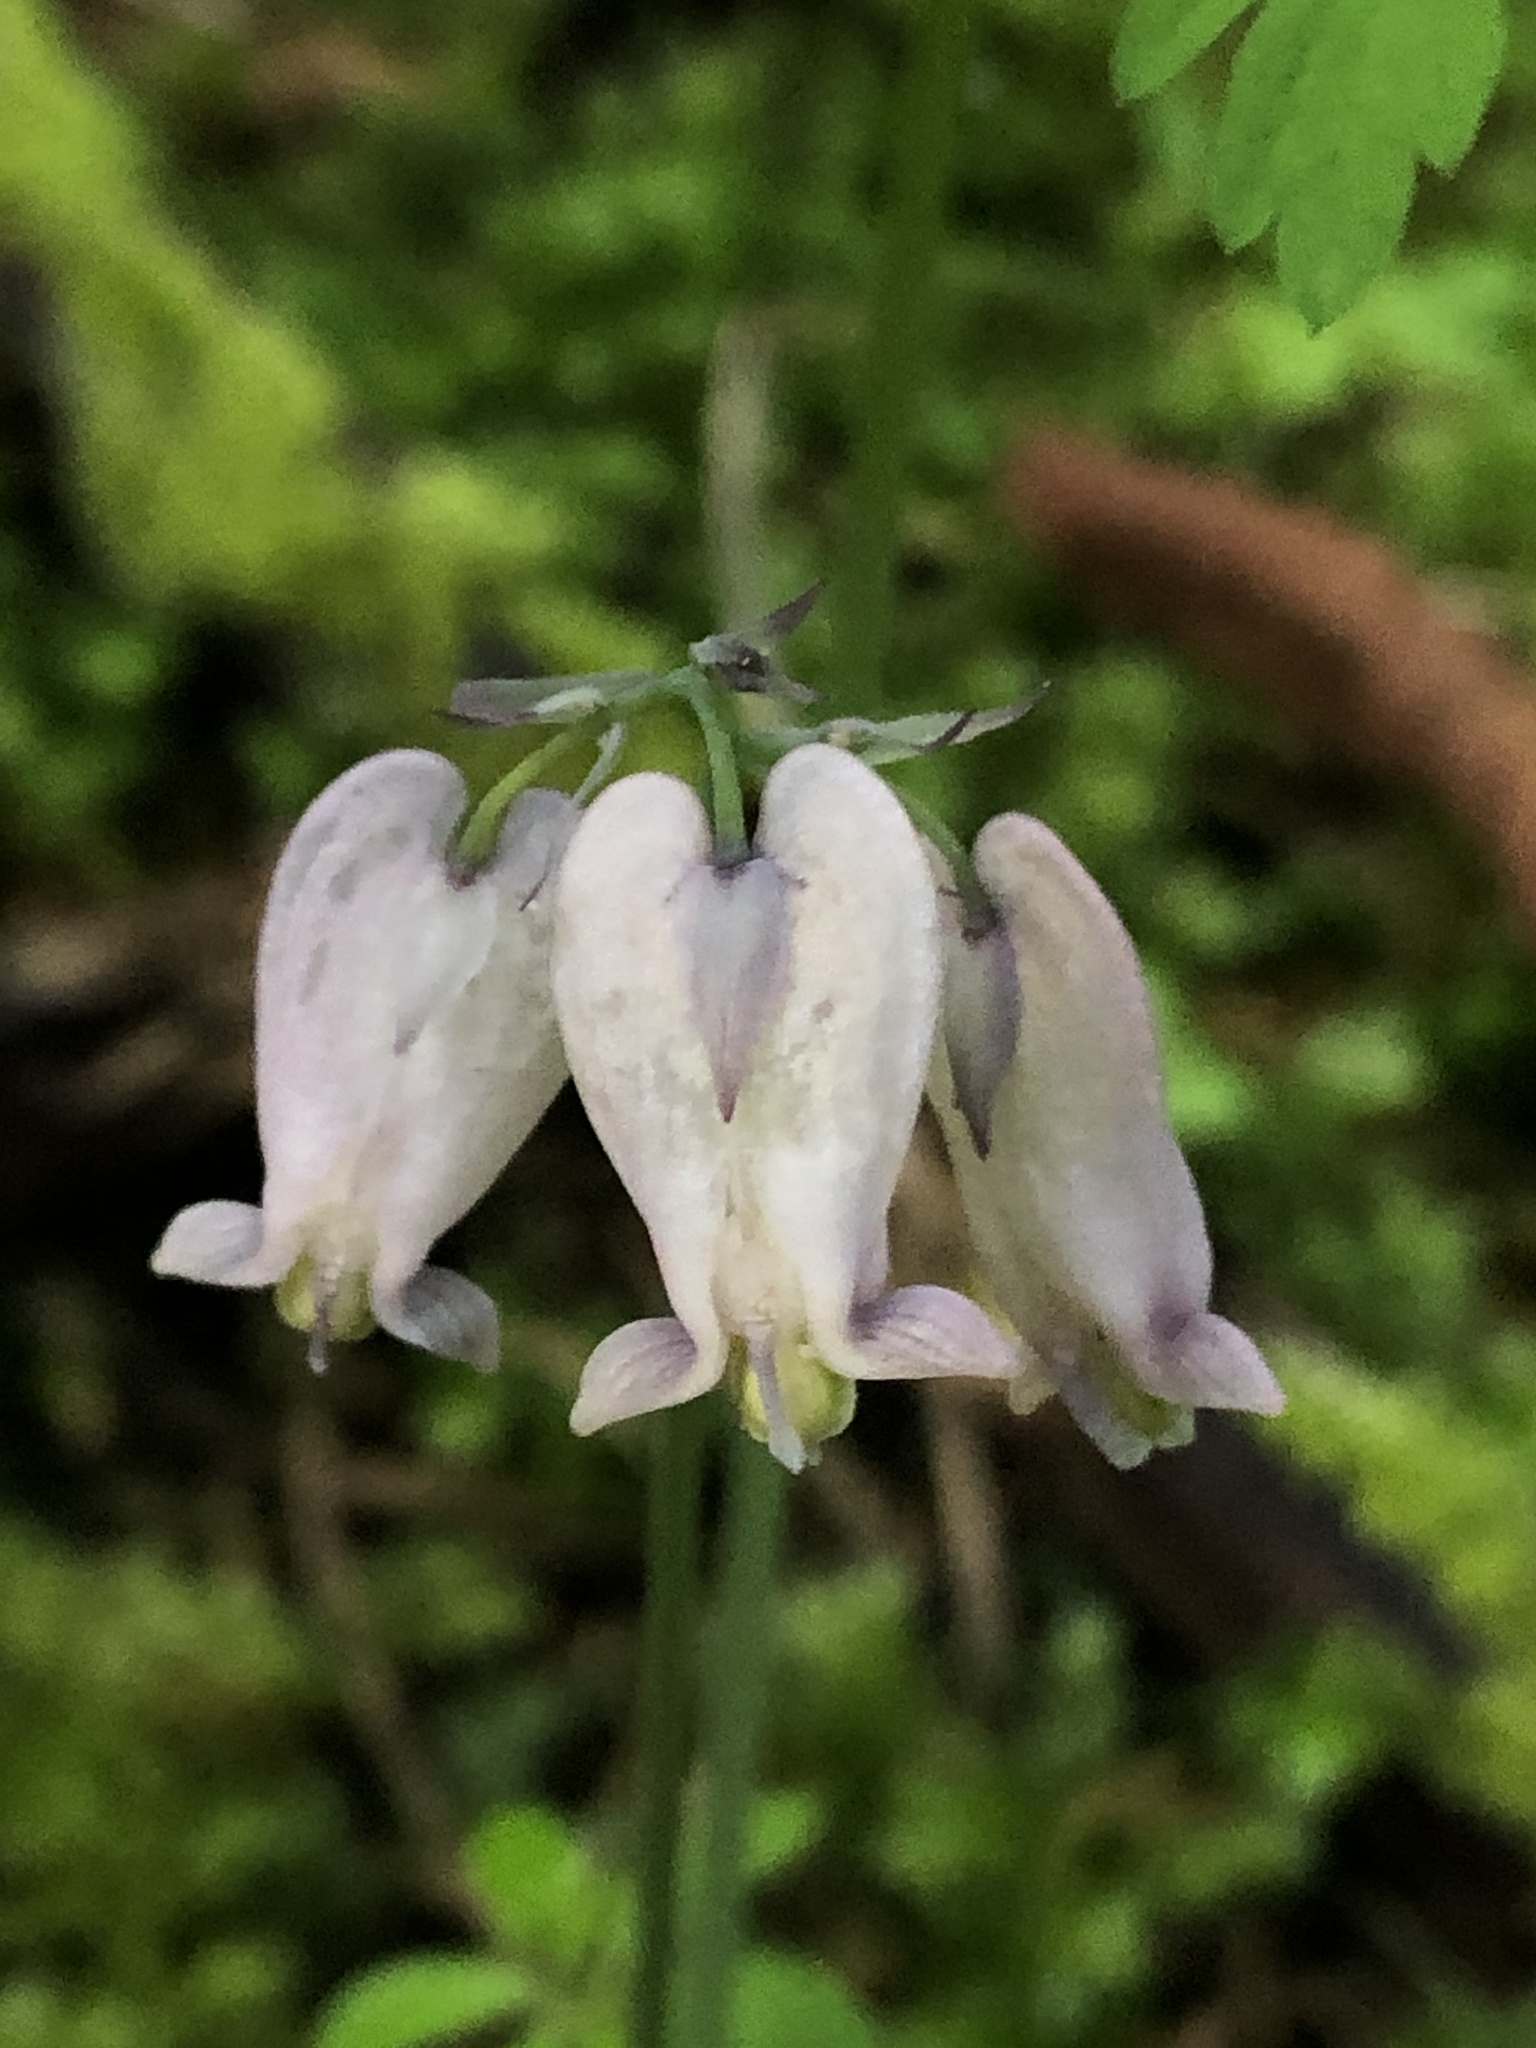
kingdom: Plantae
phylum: Tracheophyta
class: Magnoliopsida
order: Ranunculales
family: Papaveraceae
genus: Dicentra
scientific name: Dicentra formosa
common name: Bleeding-heart
